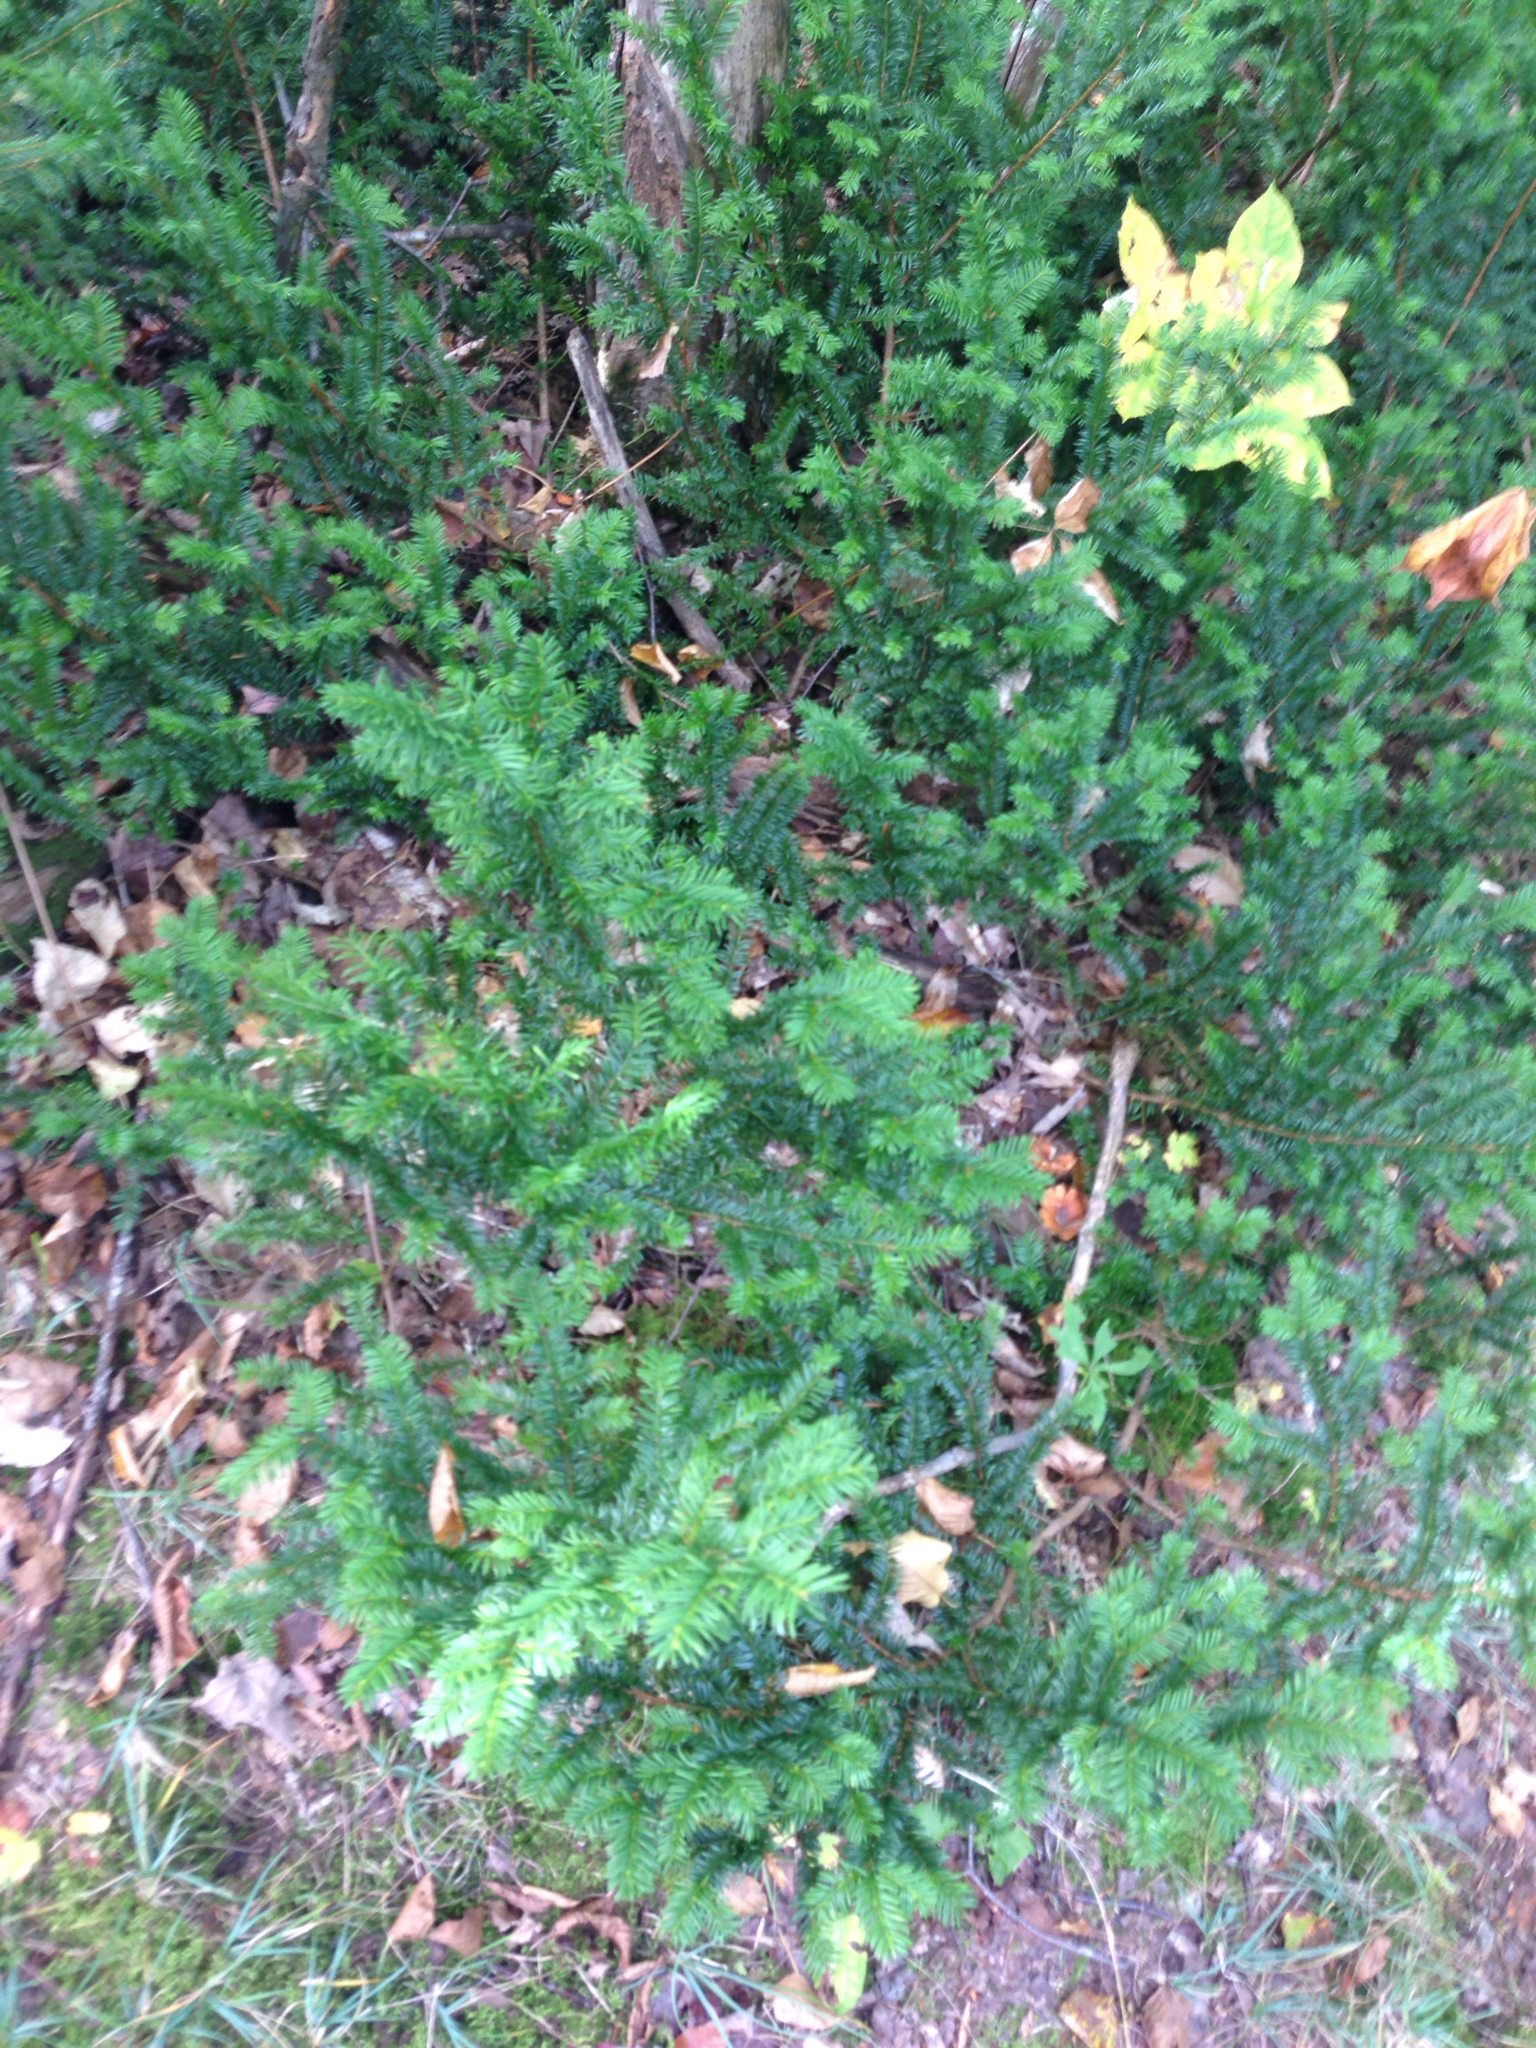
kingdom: Plantae
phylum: Tracheophyta
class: Pinopsida
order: Pinales
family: Taxaceae
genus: Taxus
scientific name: Taxus canadensis
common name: American yew
